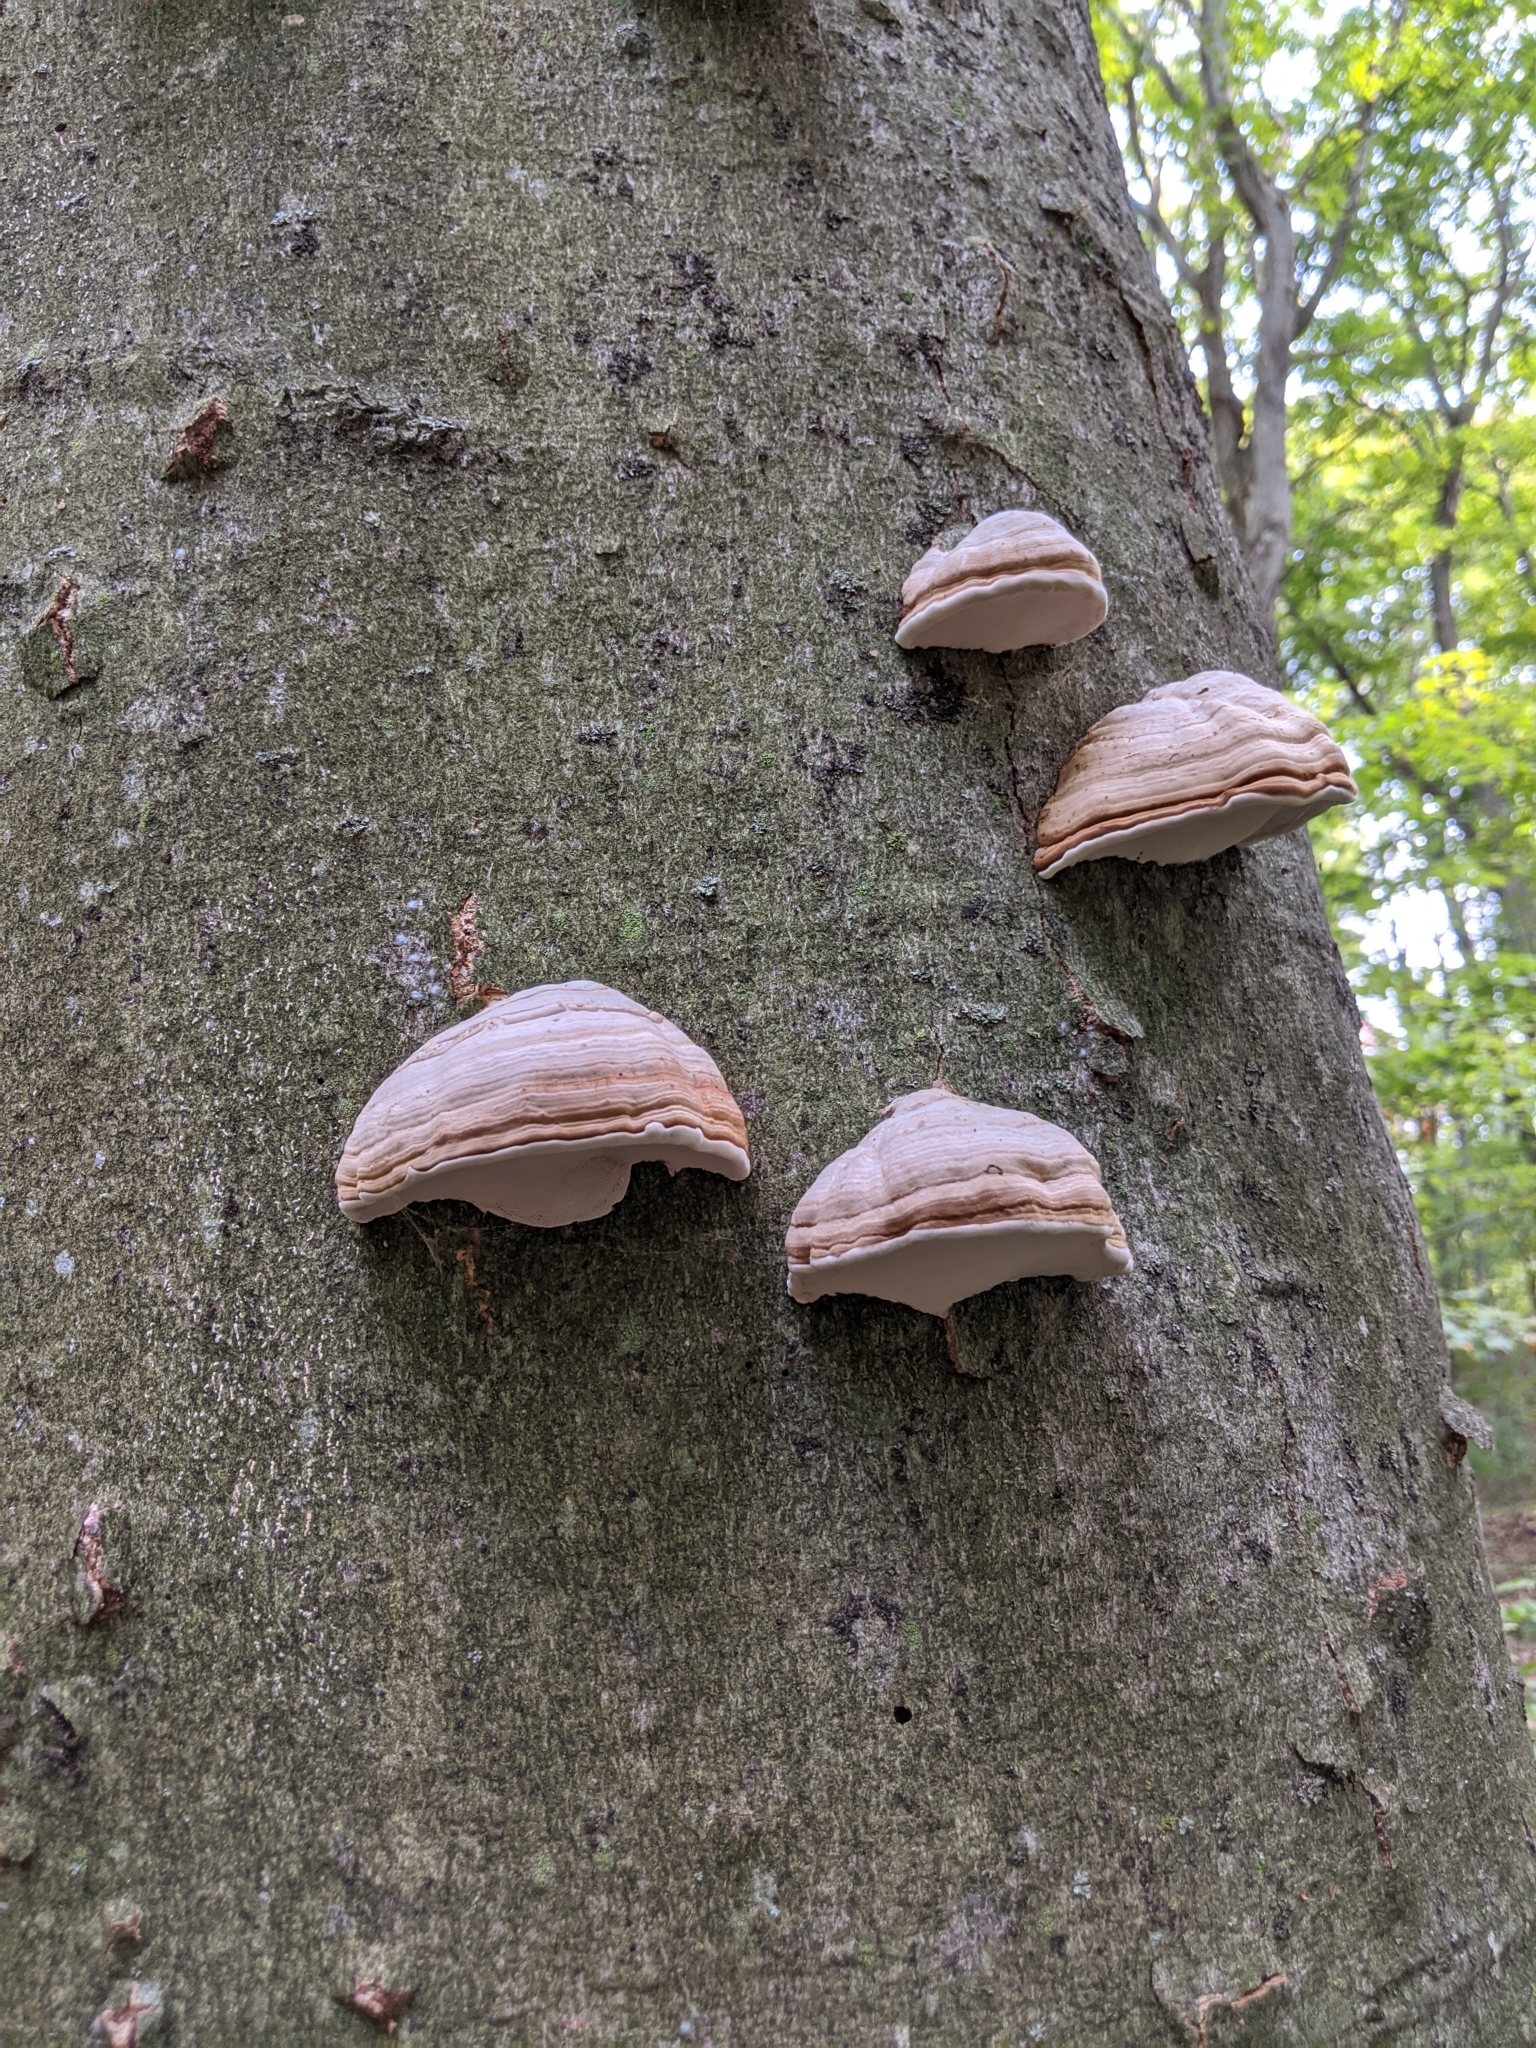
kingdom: Fungi
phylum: Basidiomycota
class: Agaricomycetes
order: Polyporales
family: Polyporaceae
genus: Fomes
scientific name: Fomes fomentarius
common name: Hoof fungus
